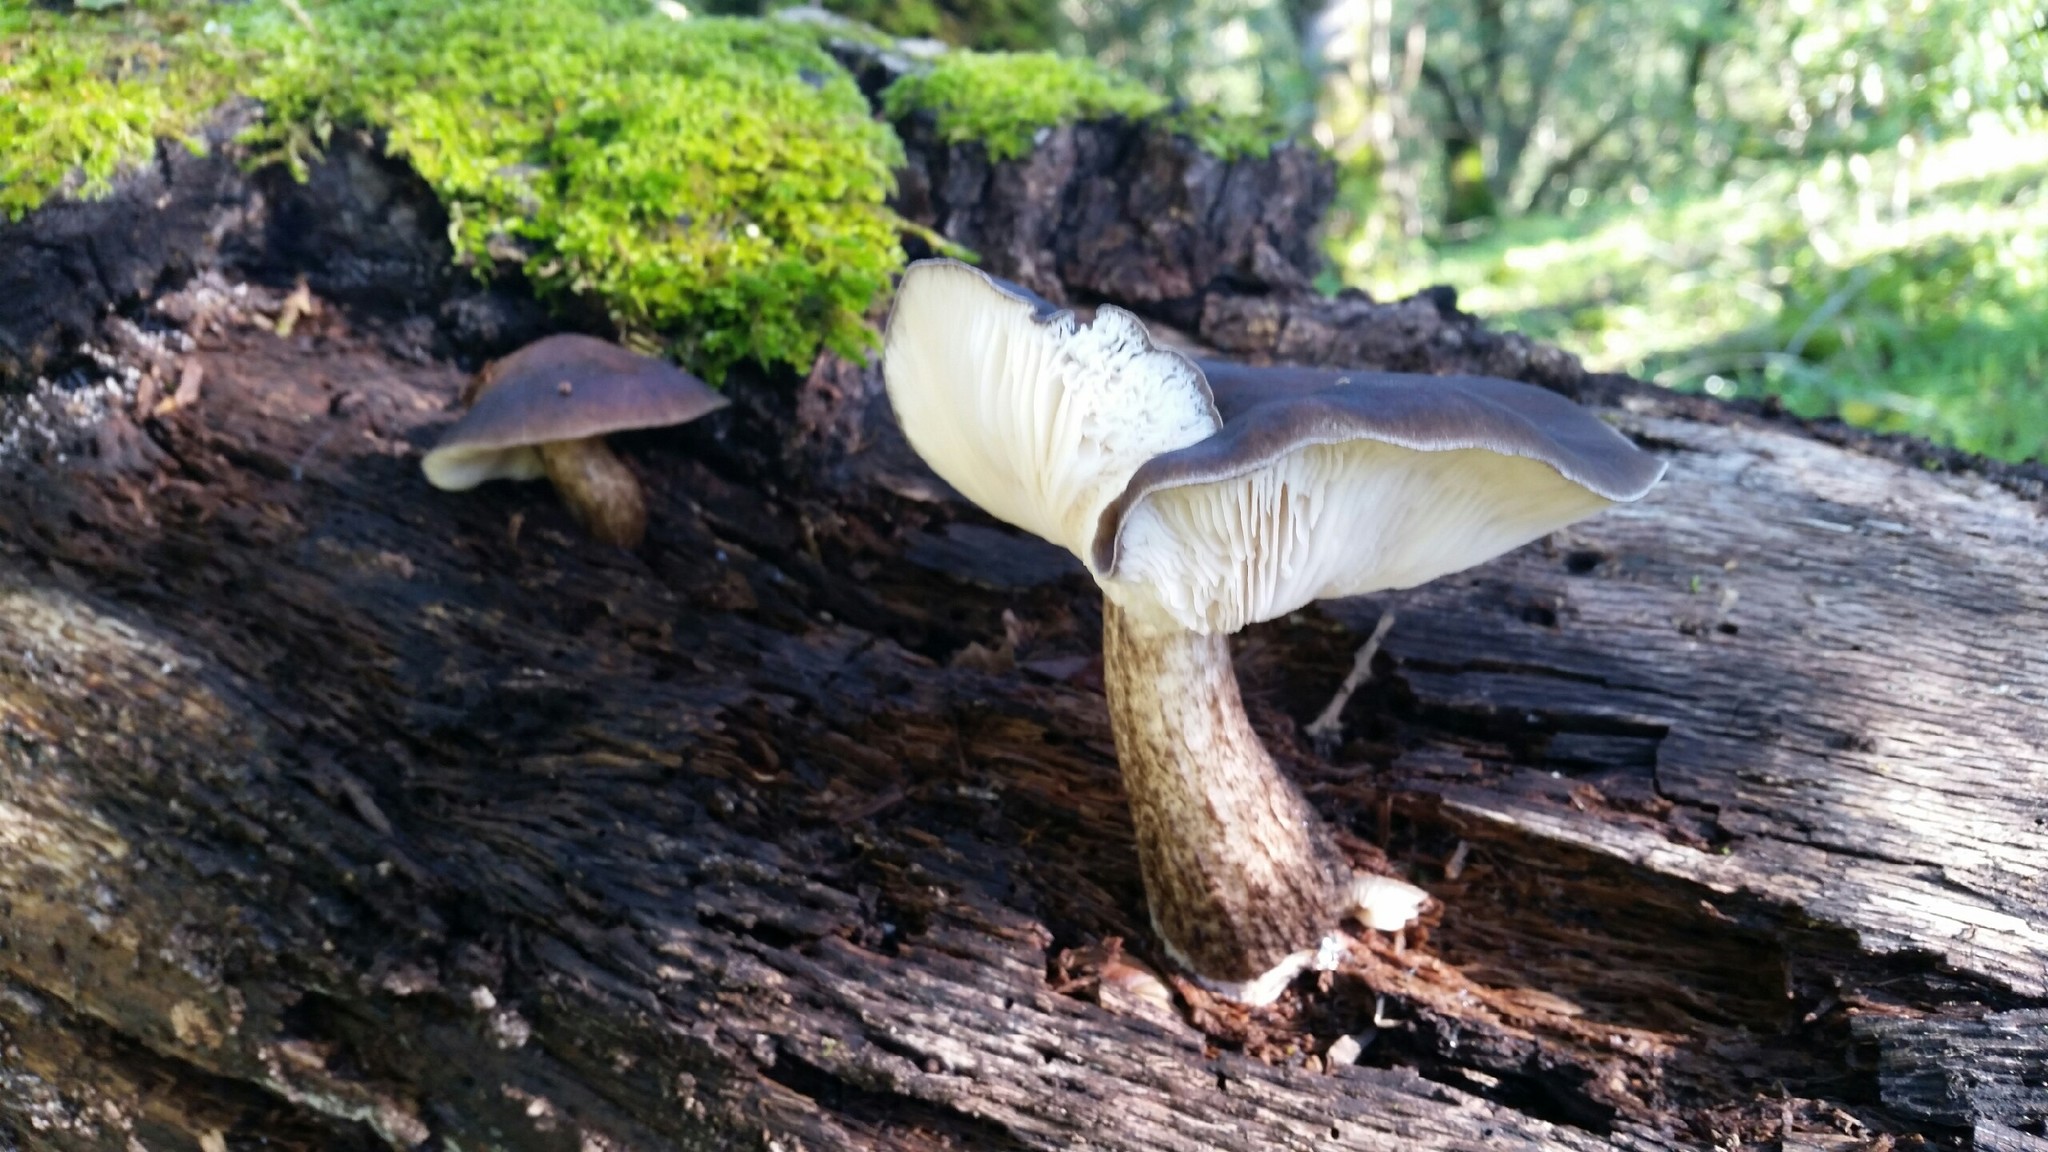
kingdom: Fungi
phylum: Basidiomycota
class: Agaricomycetes
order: Agaricales
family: Pluteaceae
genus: Pluteus
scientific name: Pluteus exilis
